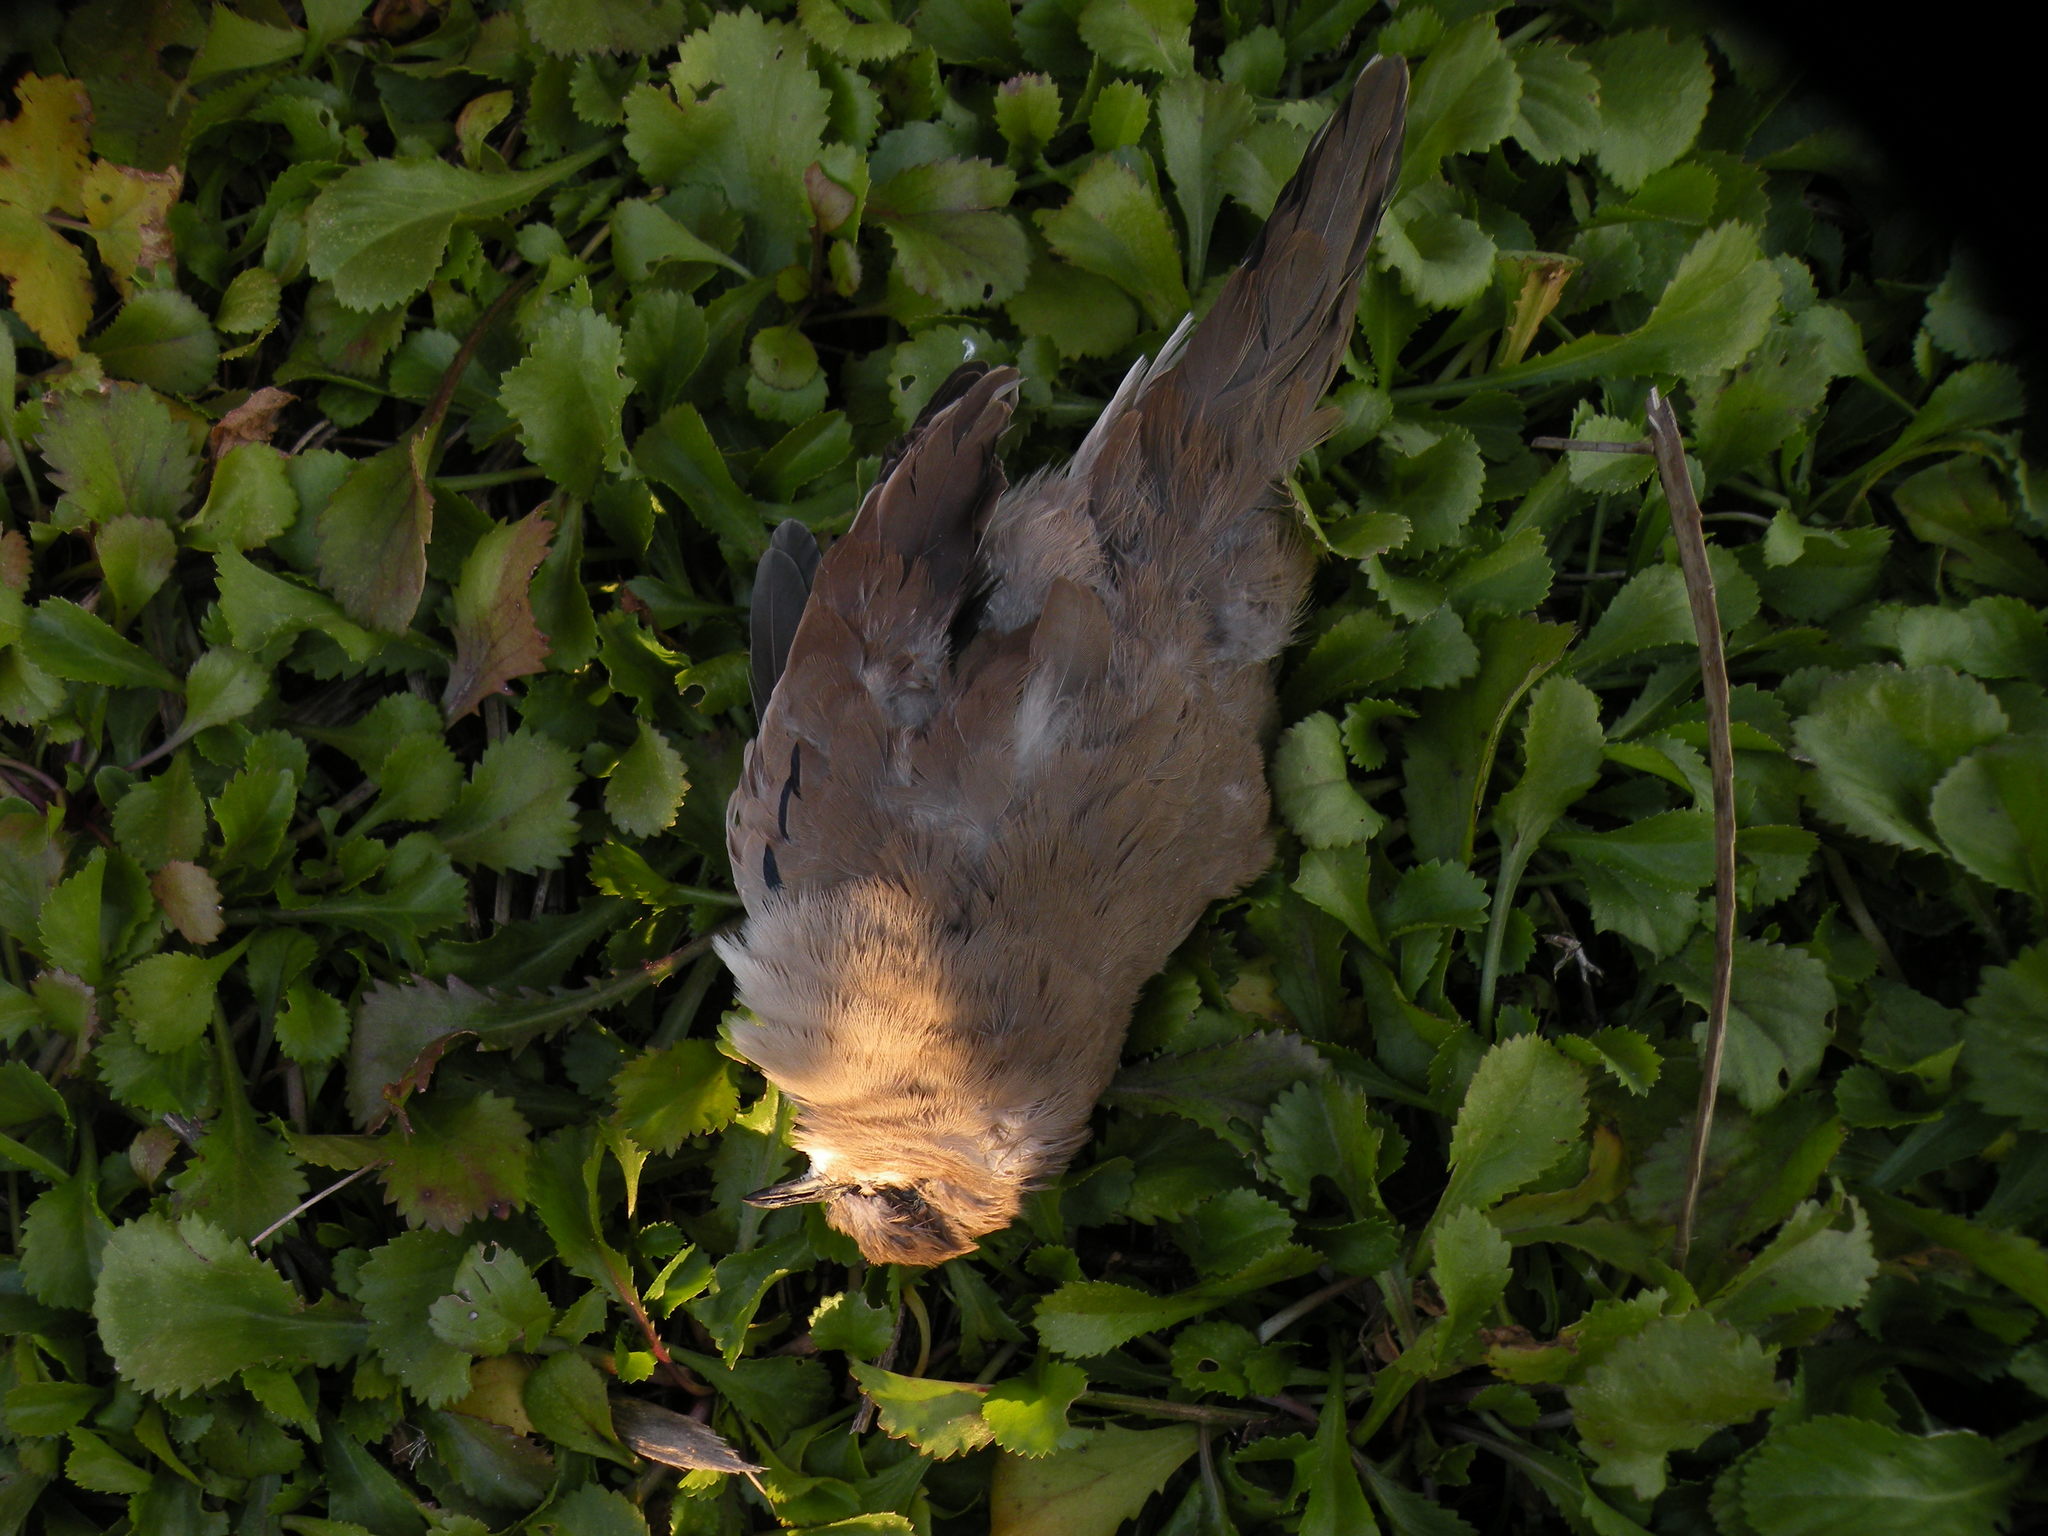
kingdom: Animalia
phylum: Chordata
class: Aves
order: Columbiformes
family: Columbidae
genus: Columbina
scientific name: Columbina picui
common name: Picui ground dove
